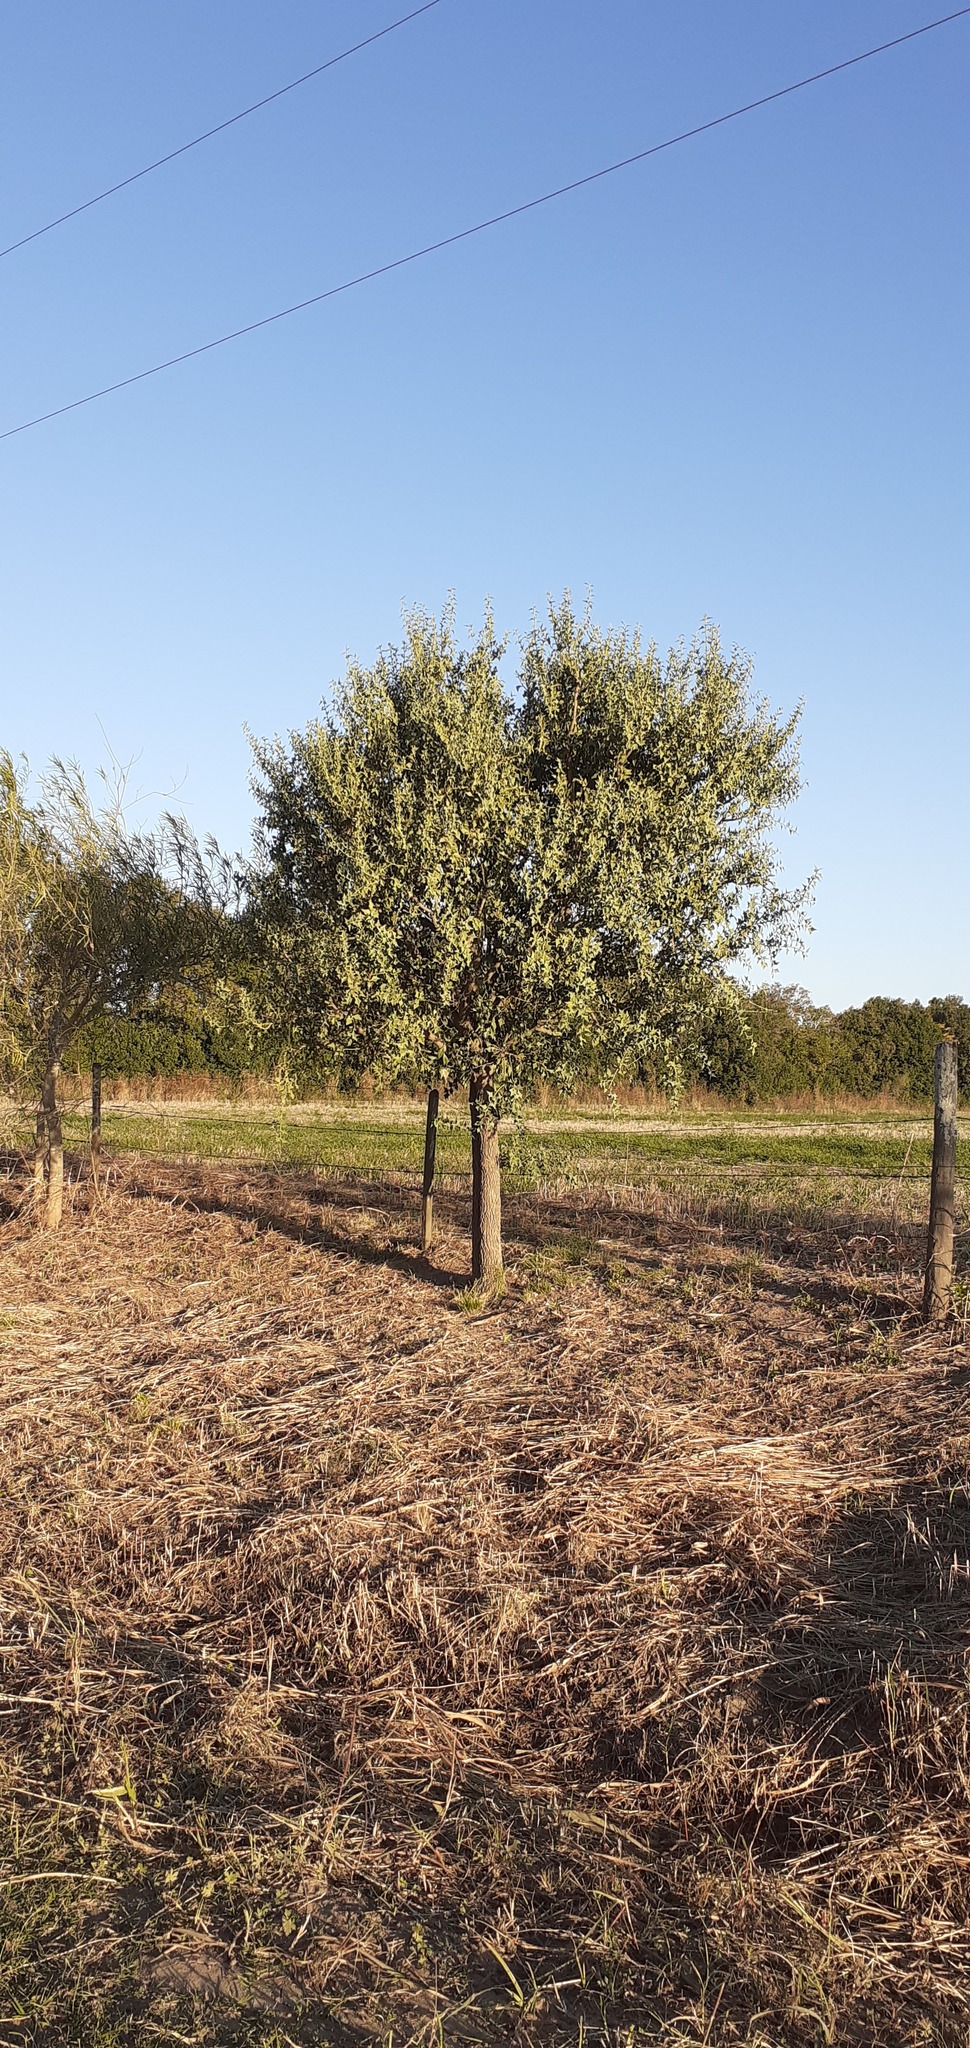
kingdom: Plantae
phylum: Tracheophyta
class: Magnoliopsida
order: Santalales
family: Cervantesiaceae
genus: Jodina
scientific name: Jodina rhombifolia
